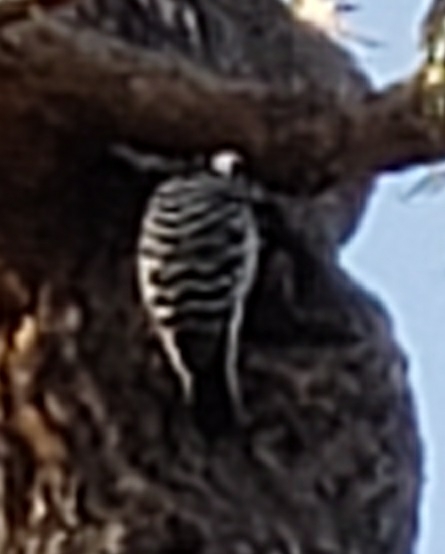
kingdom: Animalia
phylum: Chordata
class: Aves
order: Piciformes
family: Picidae
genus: Dryobates
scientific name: Dryobates nuttallii
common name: Nuttall's woodpecker
